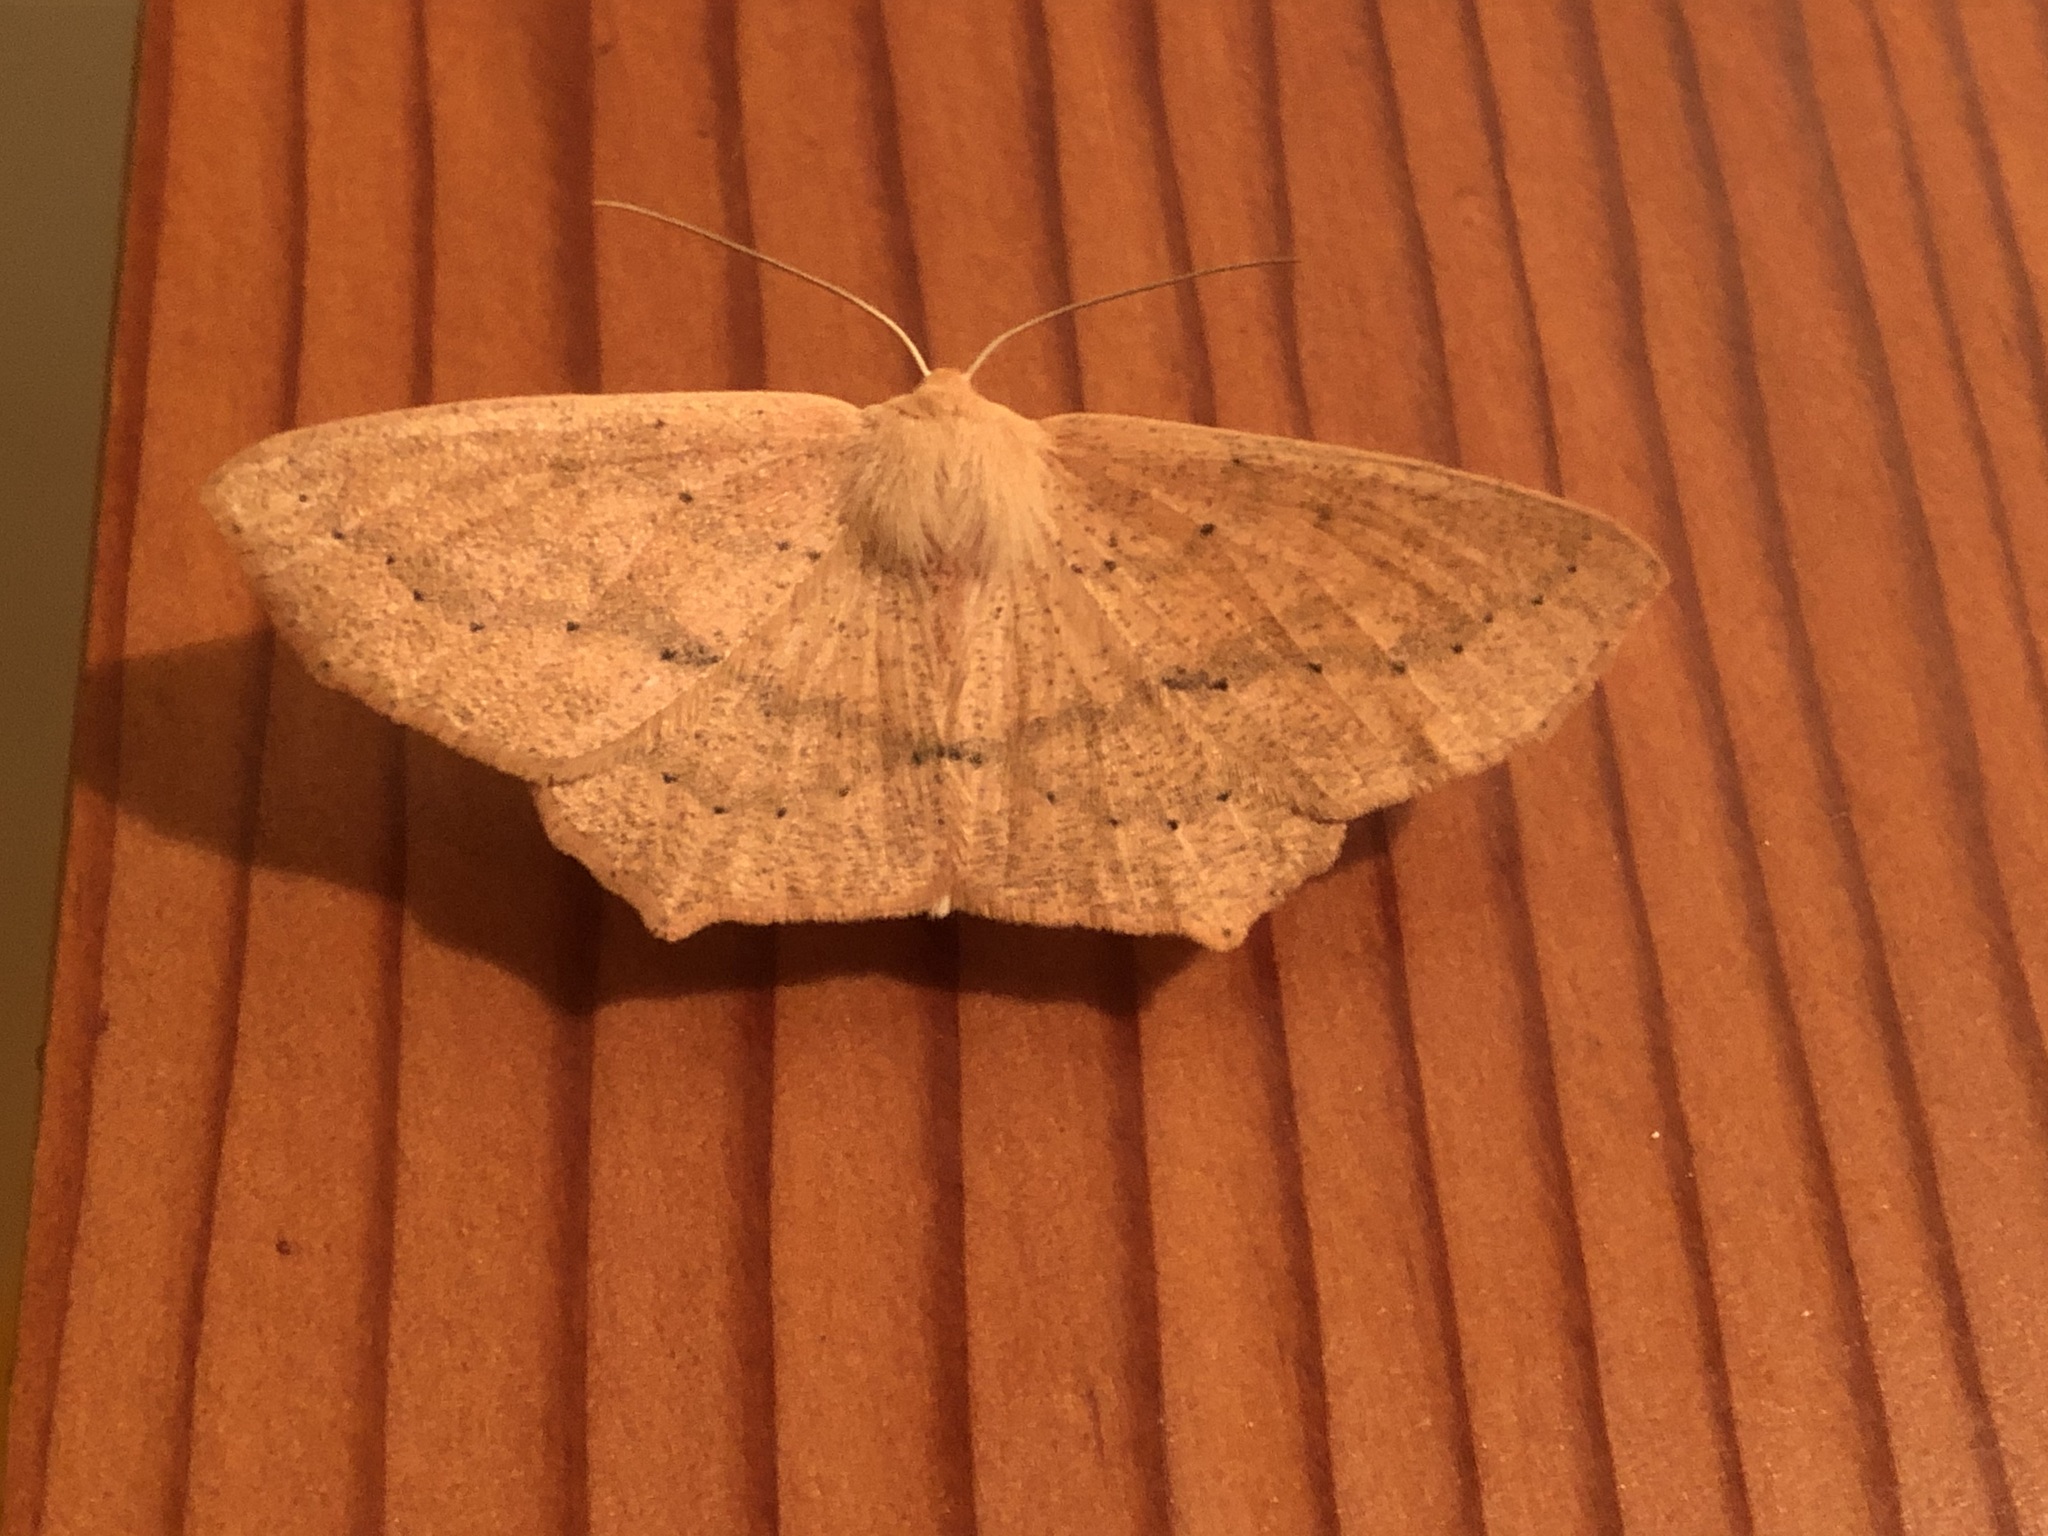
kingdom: Animalia
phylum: Arthropoda
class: Insecta
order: Lepidoptera
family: Geometridae
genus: Sabulodes
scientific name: Sabulodes aegrotata
